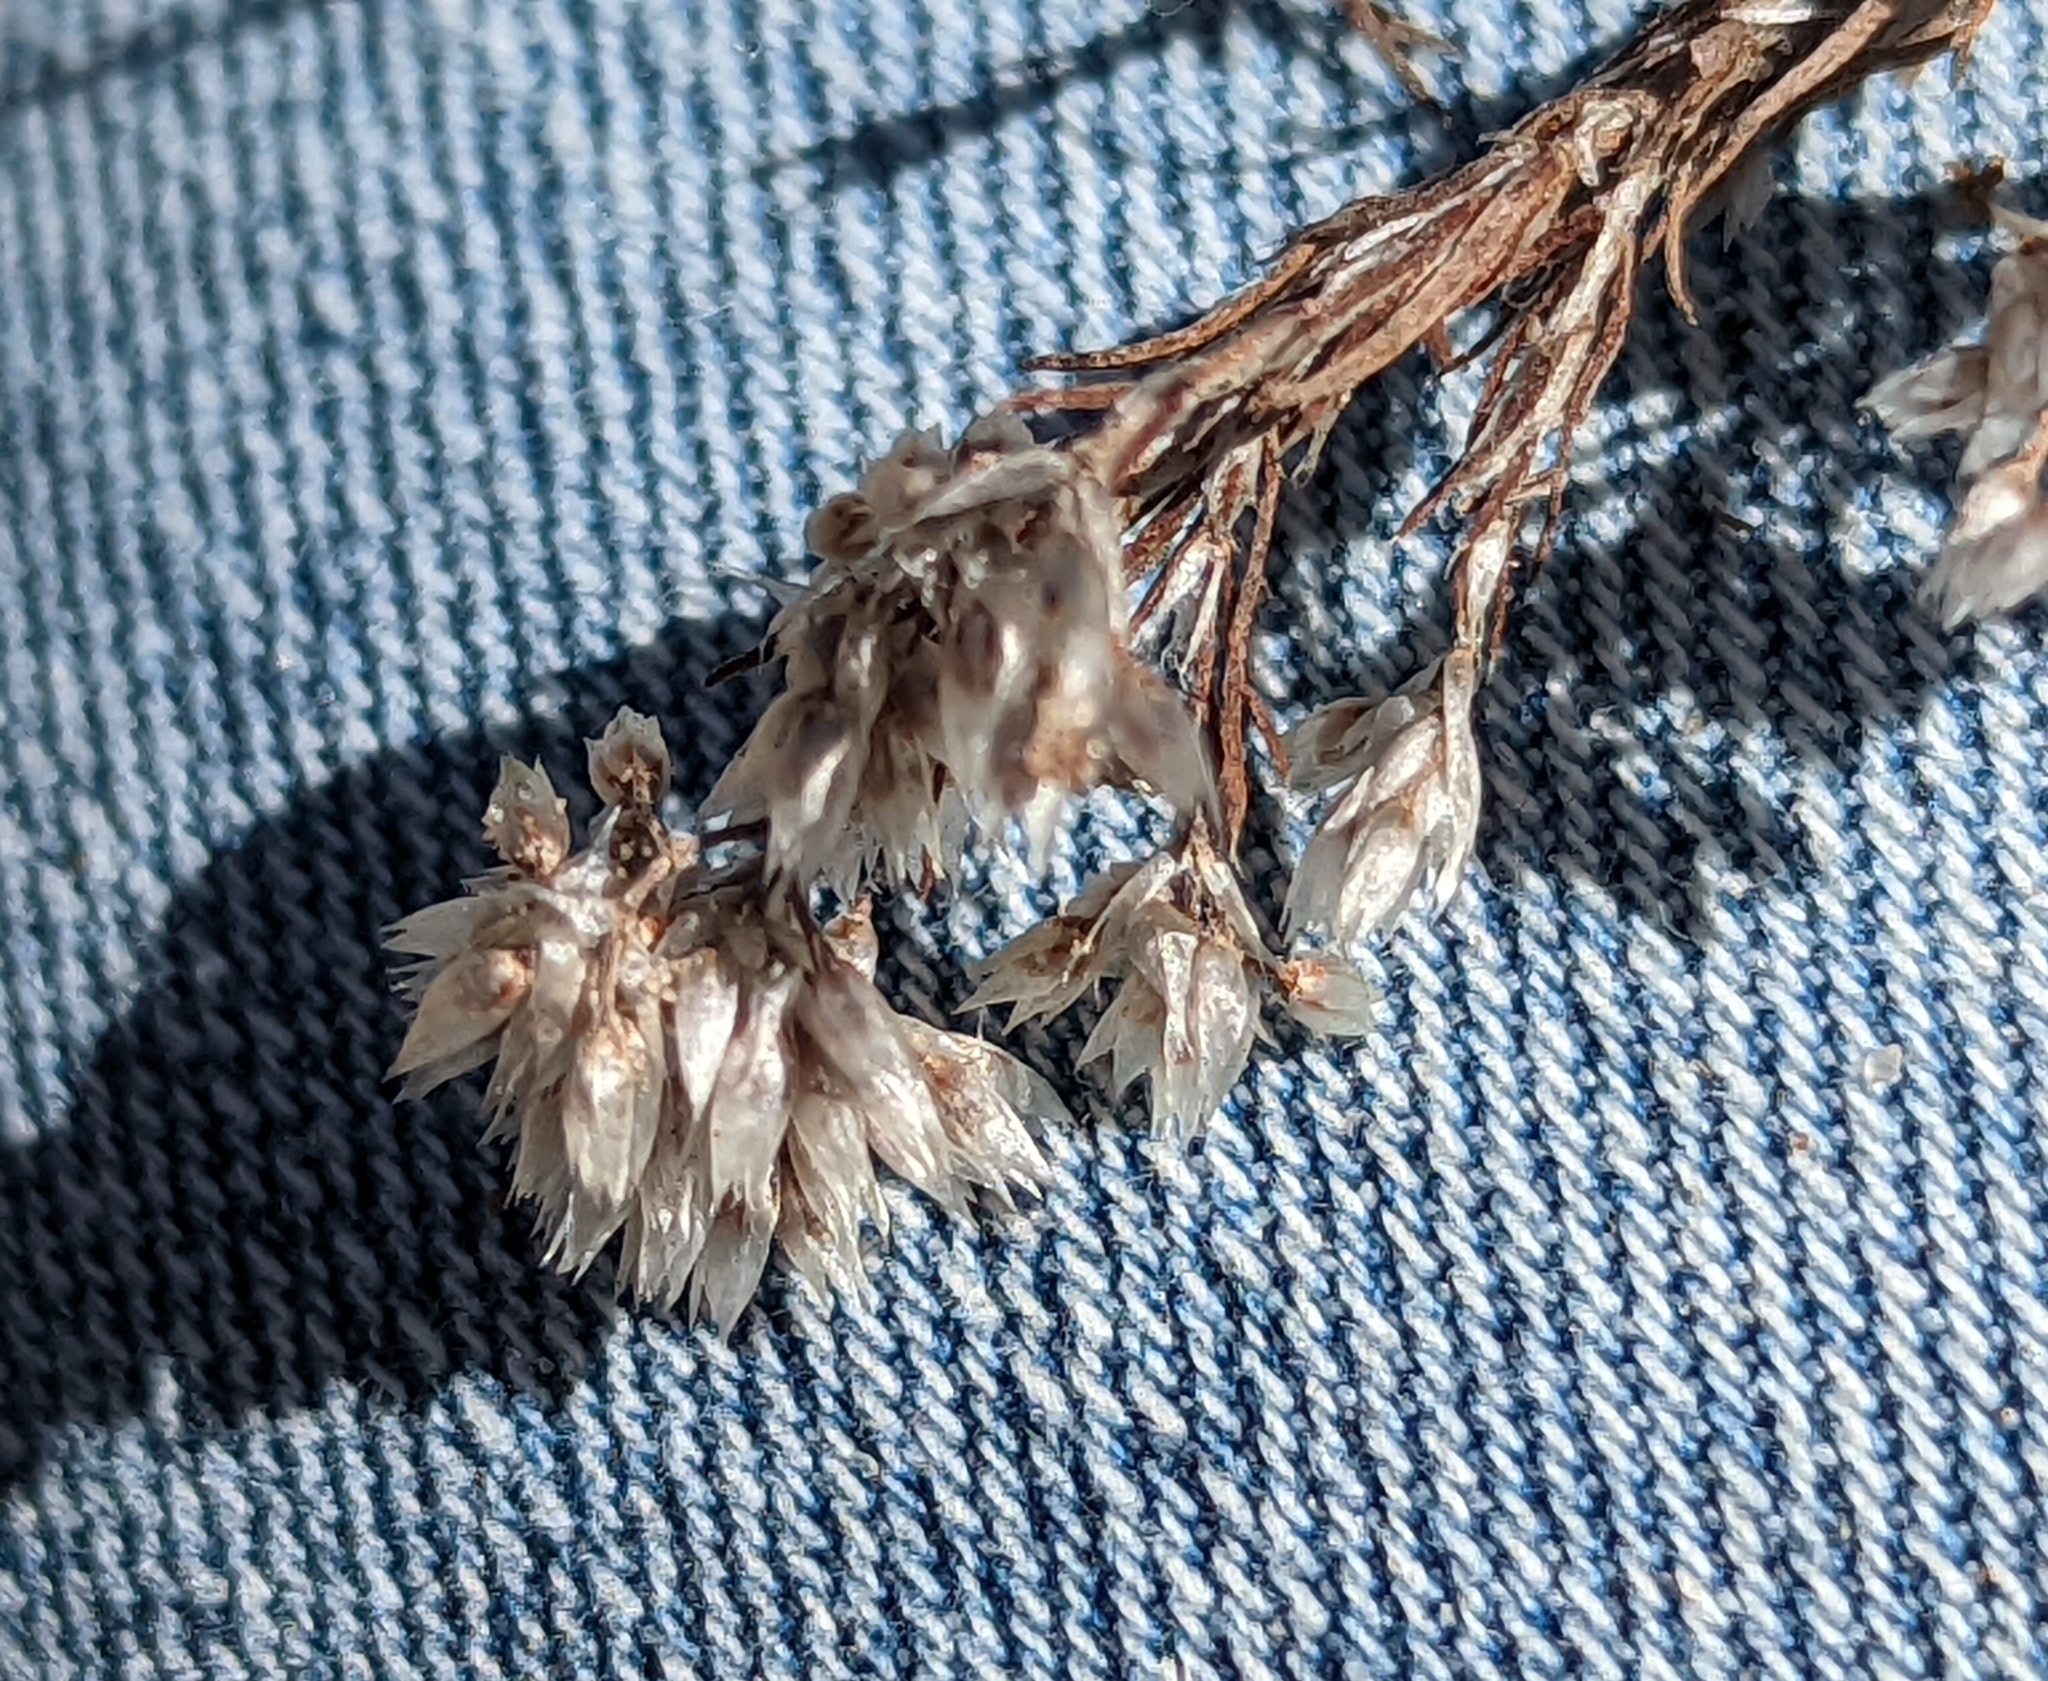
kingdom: Plantae
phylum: Tracheophyta
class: Magnoliopsida
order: Caryophyllales
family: Caryophyllaceae
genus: Polycarpaea
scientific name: Polycarpaea corymbosa
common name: Oldman's cap
